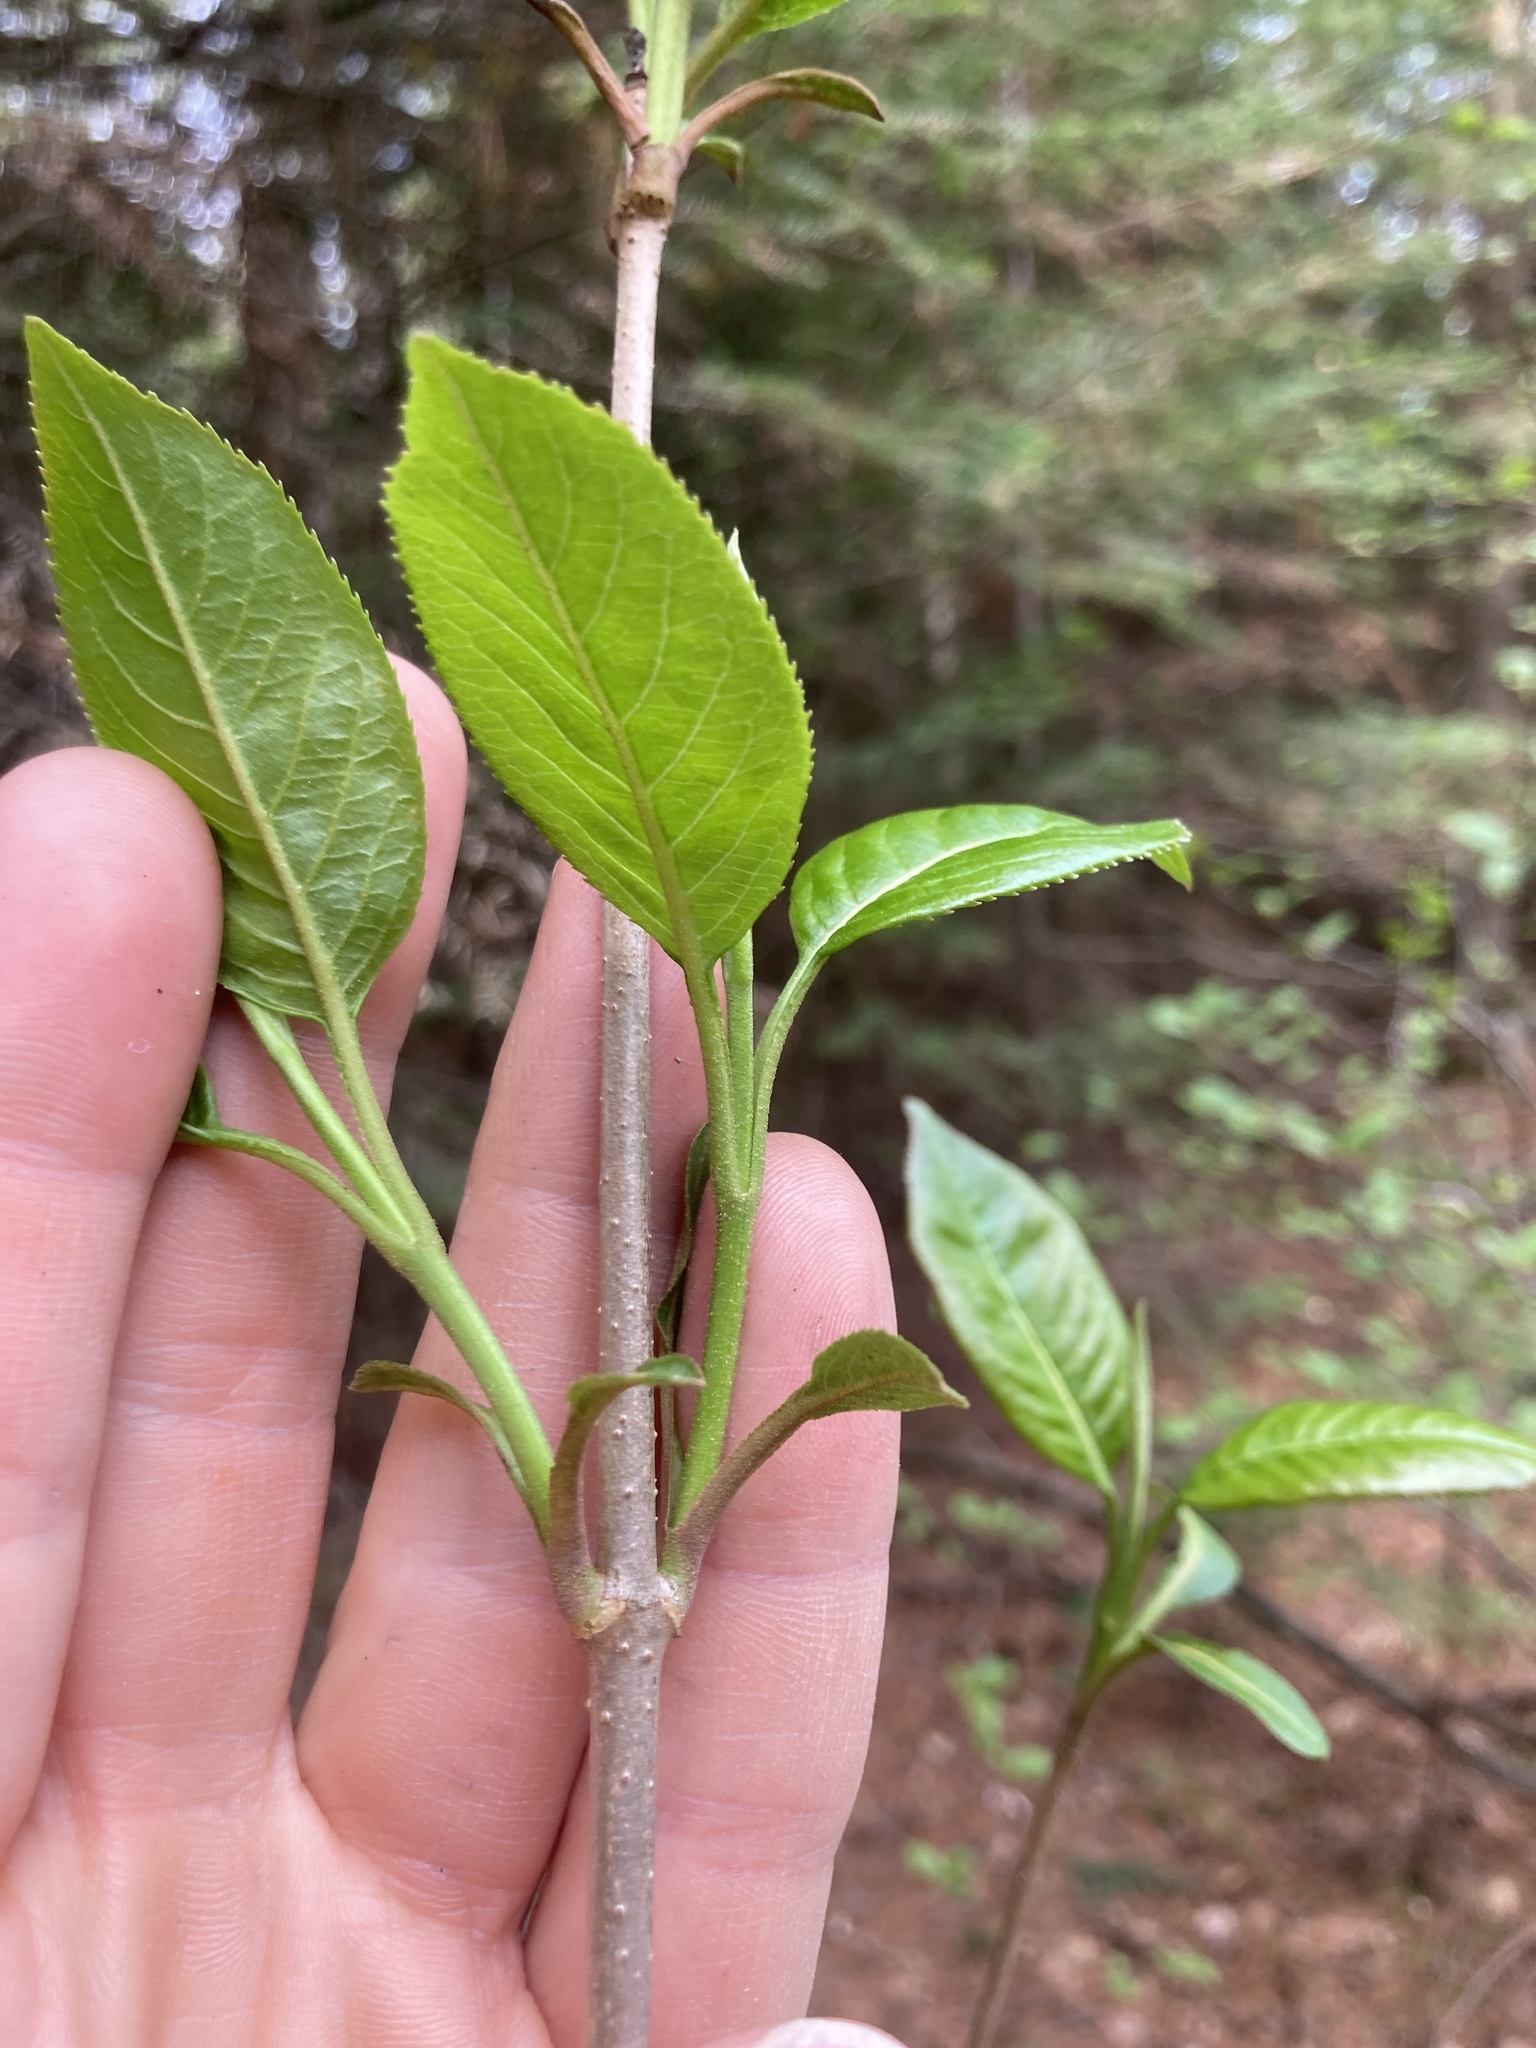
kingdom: Plantae
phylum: Tracheophyta
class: Magnoliopsida
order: Dipsacales
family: Viburnaceae
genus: Viburnum
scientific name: Viburnum lentago
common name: Black haw
